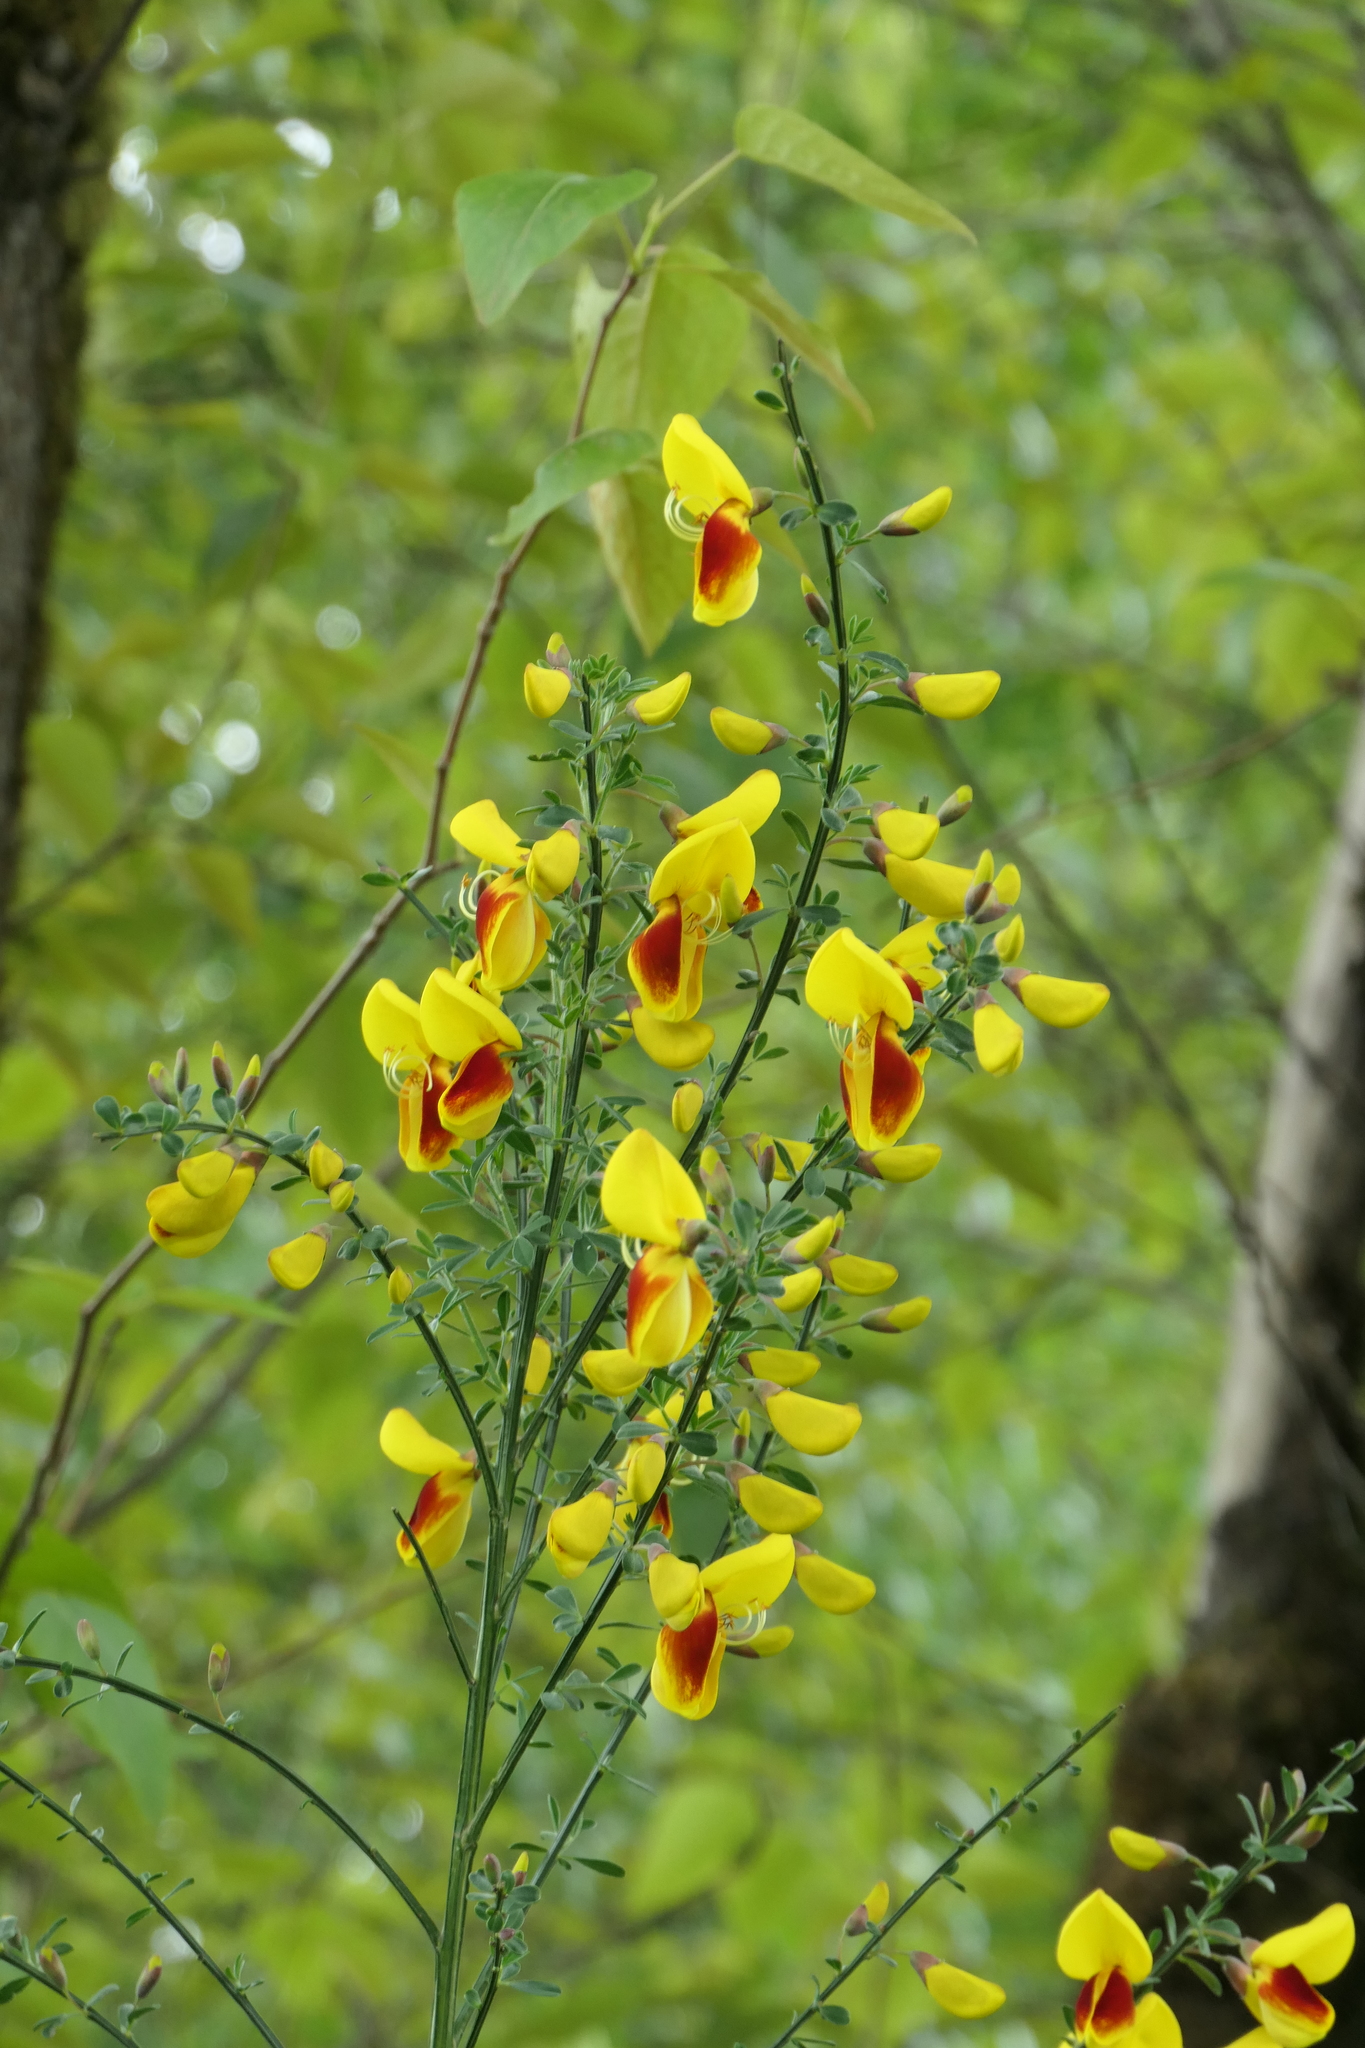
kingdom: Plantae
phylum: Tracheophyta
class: Magnoliopsida
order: Fabales
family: Fabaceae
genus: Cytisus
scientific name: Cytisus scoparius
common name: Scotch broom
